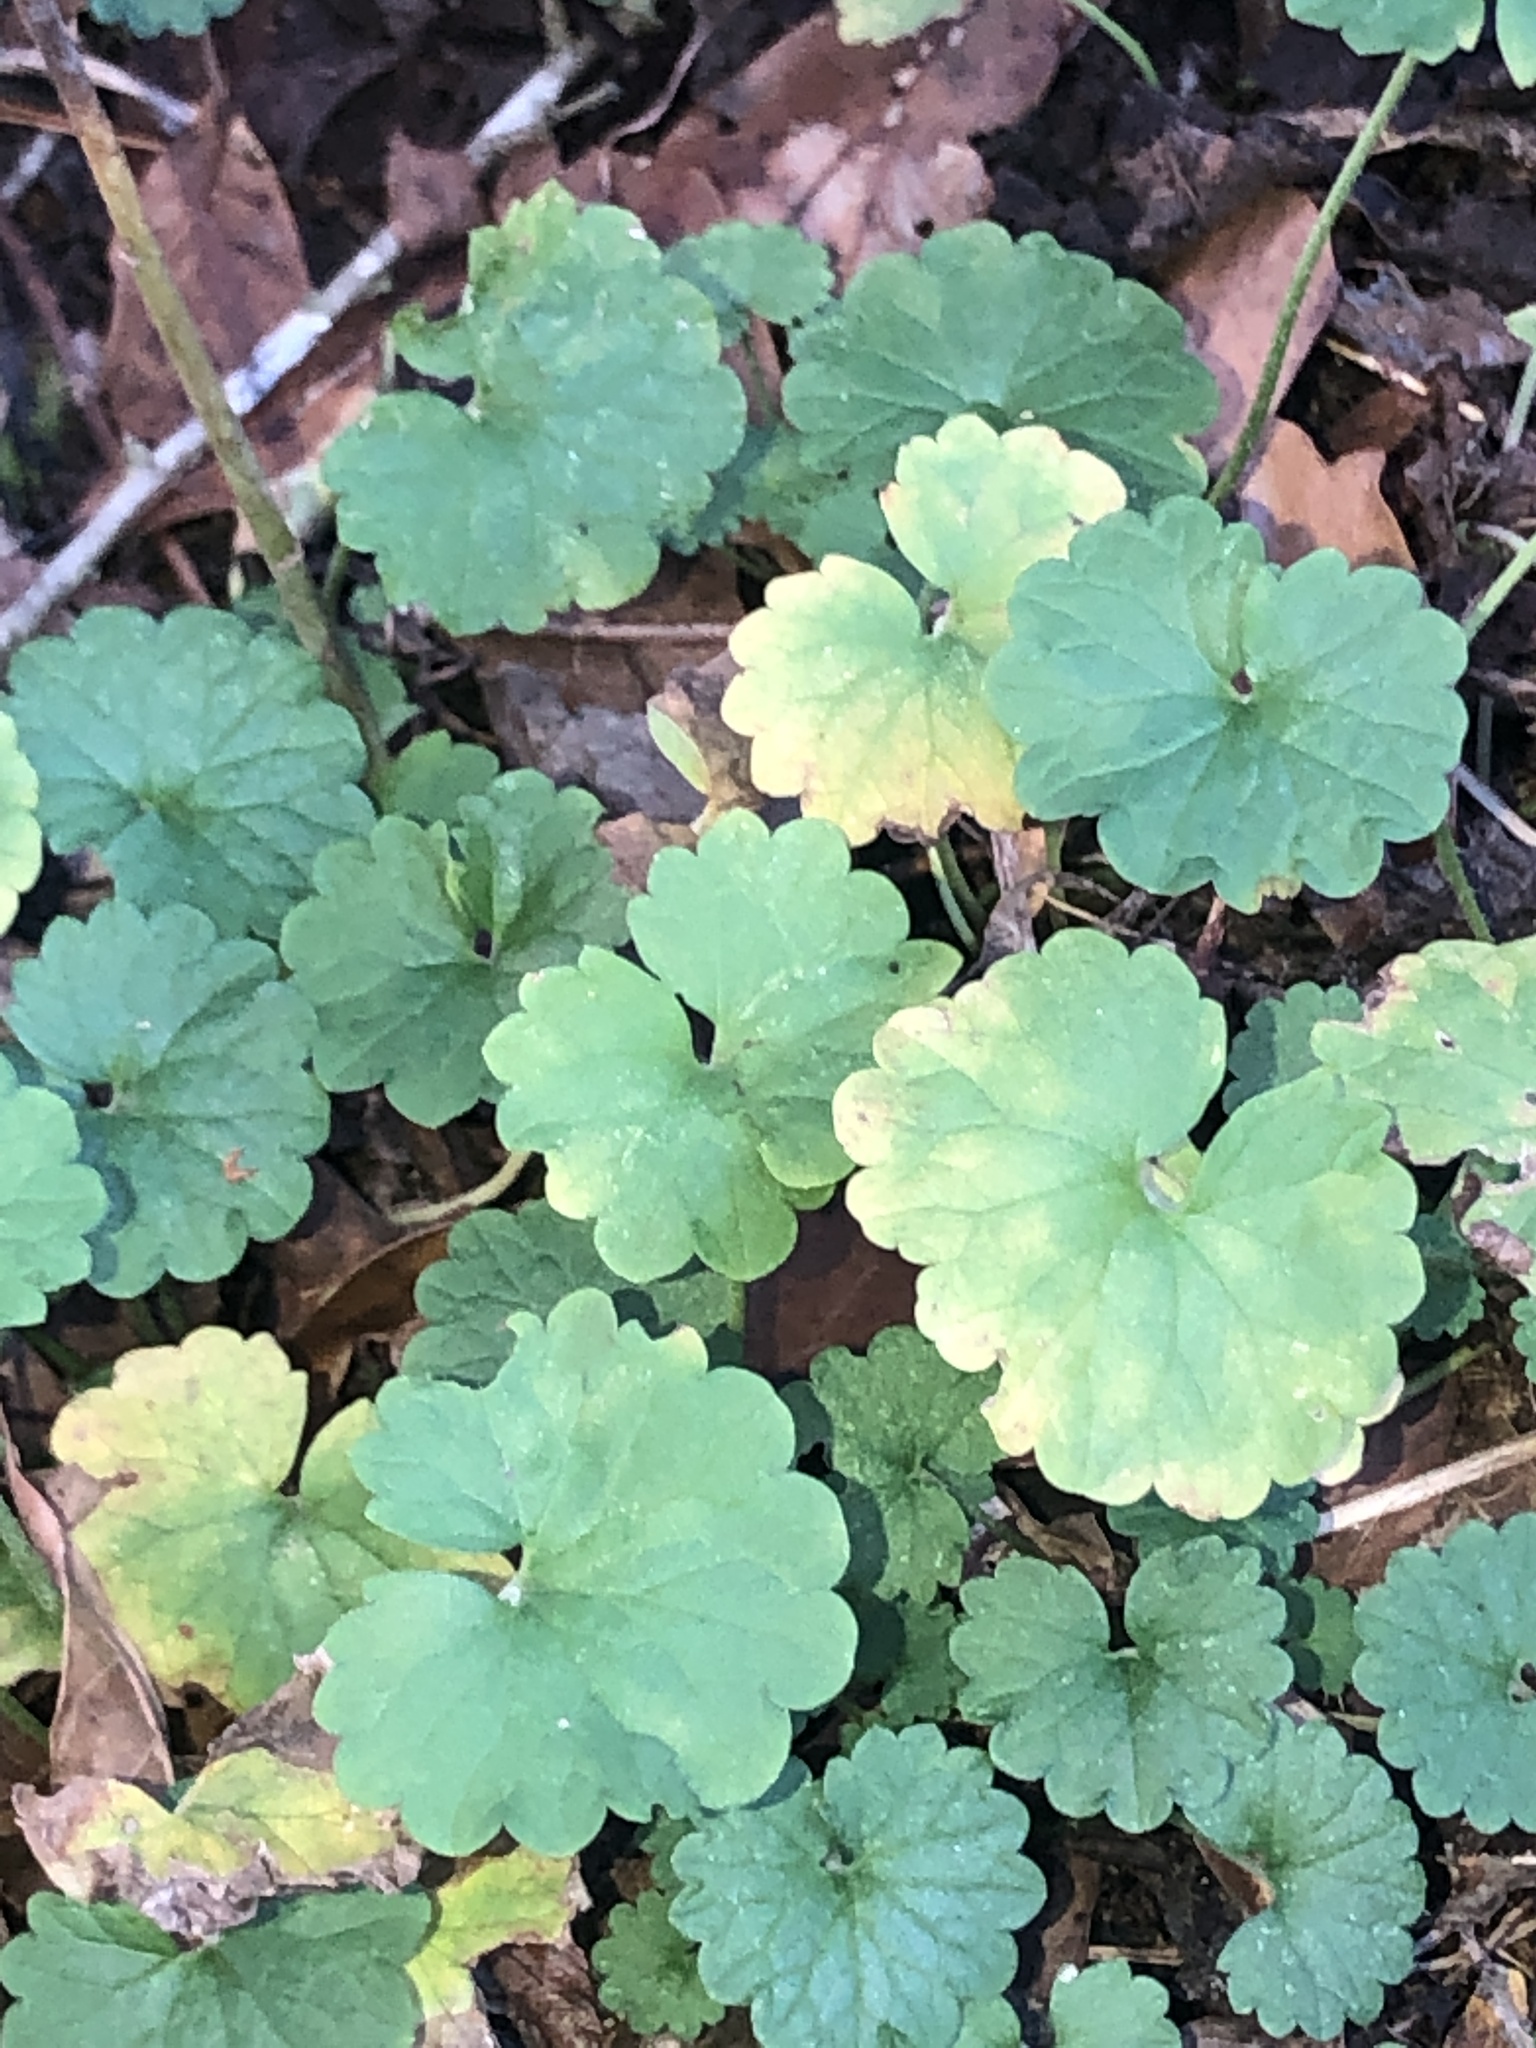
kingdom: Plantae
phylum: Tracheophyta
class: Magnoliopsida
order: Lamiales
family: Lamiaceae
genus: Glechoma
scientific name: Glechoma hederacea
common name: Ground ivy
